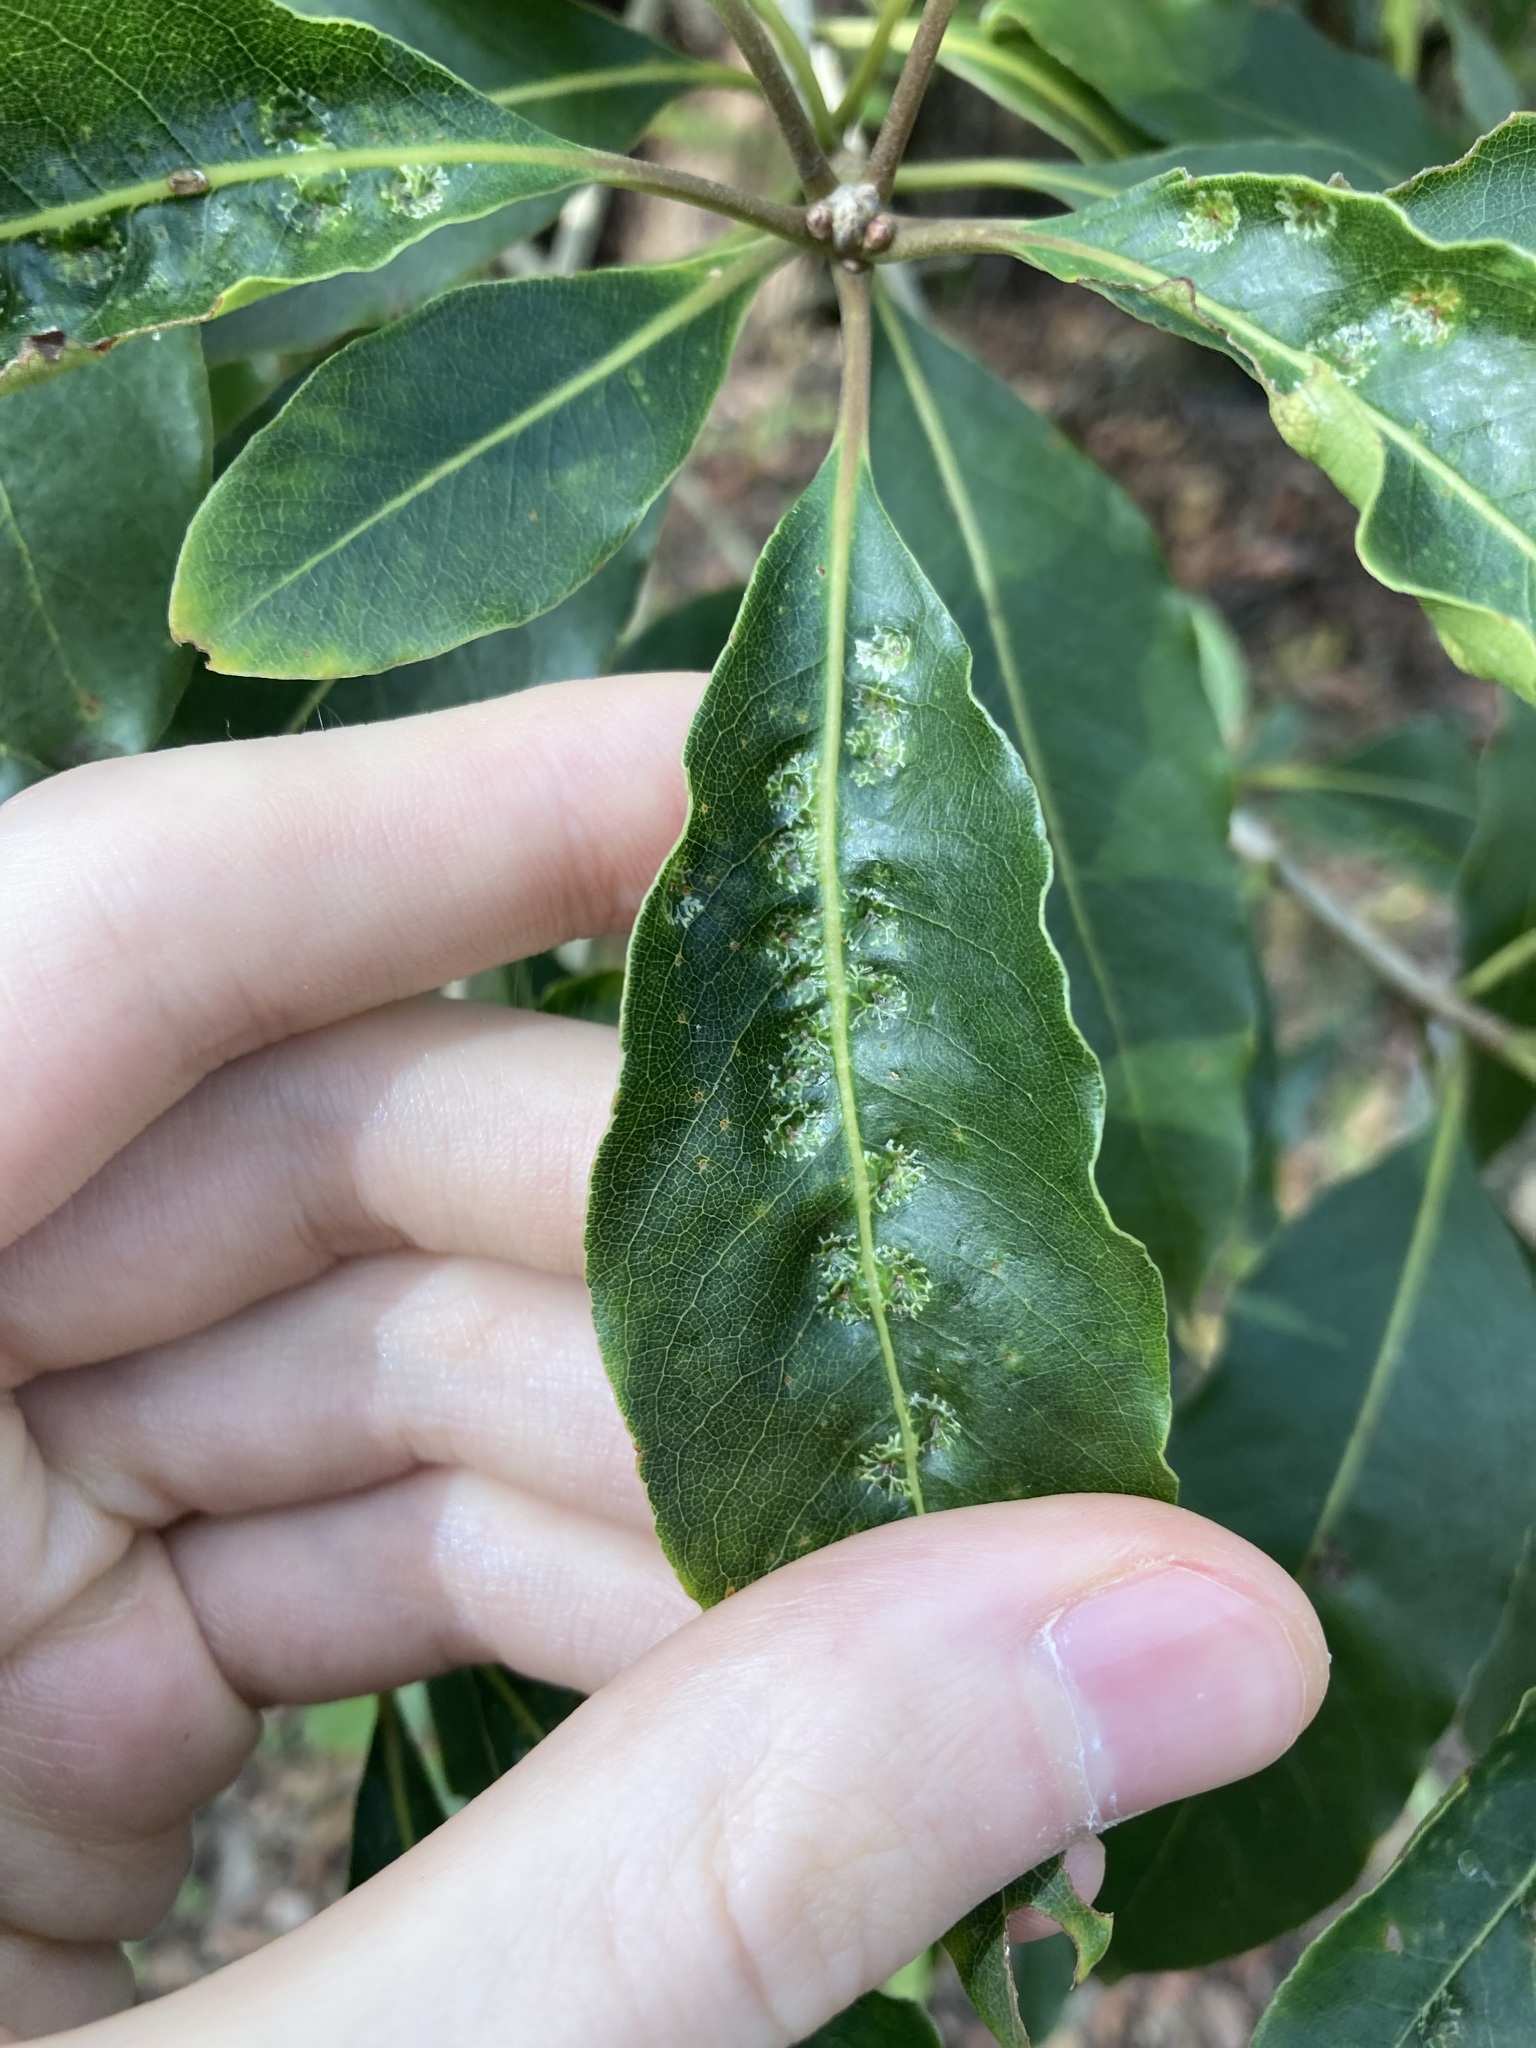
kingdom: Animalia
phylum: Arthropoda
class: Insecta
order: Diptera
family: Agromyzidae
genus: Phytoliriomyza
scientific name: Phytoliriomyza pittosporophylli
